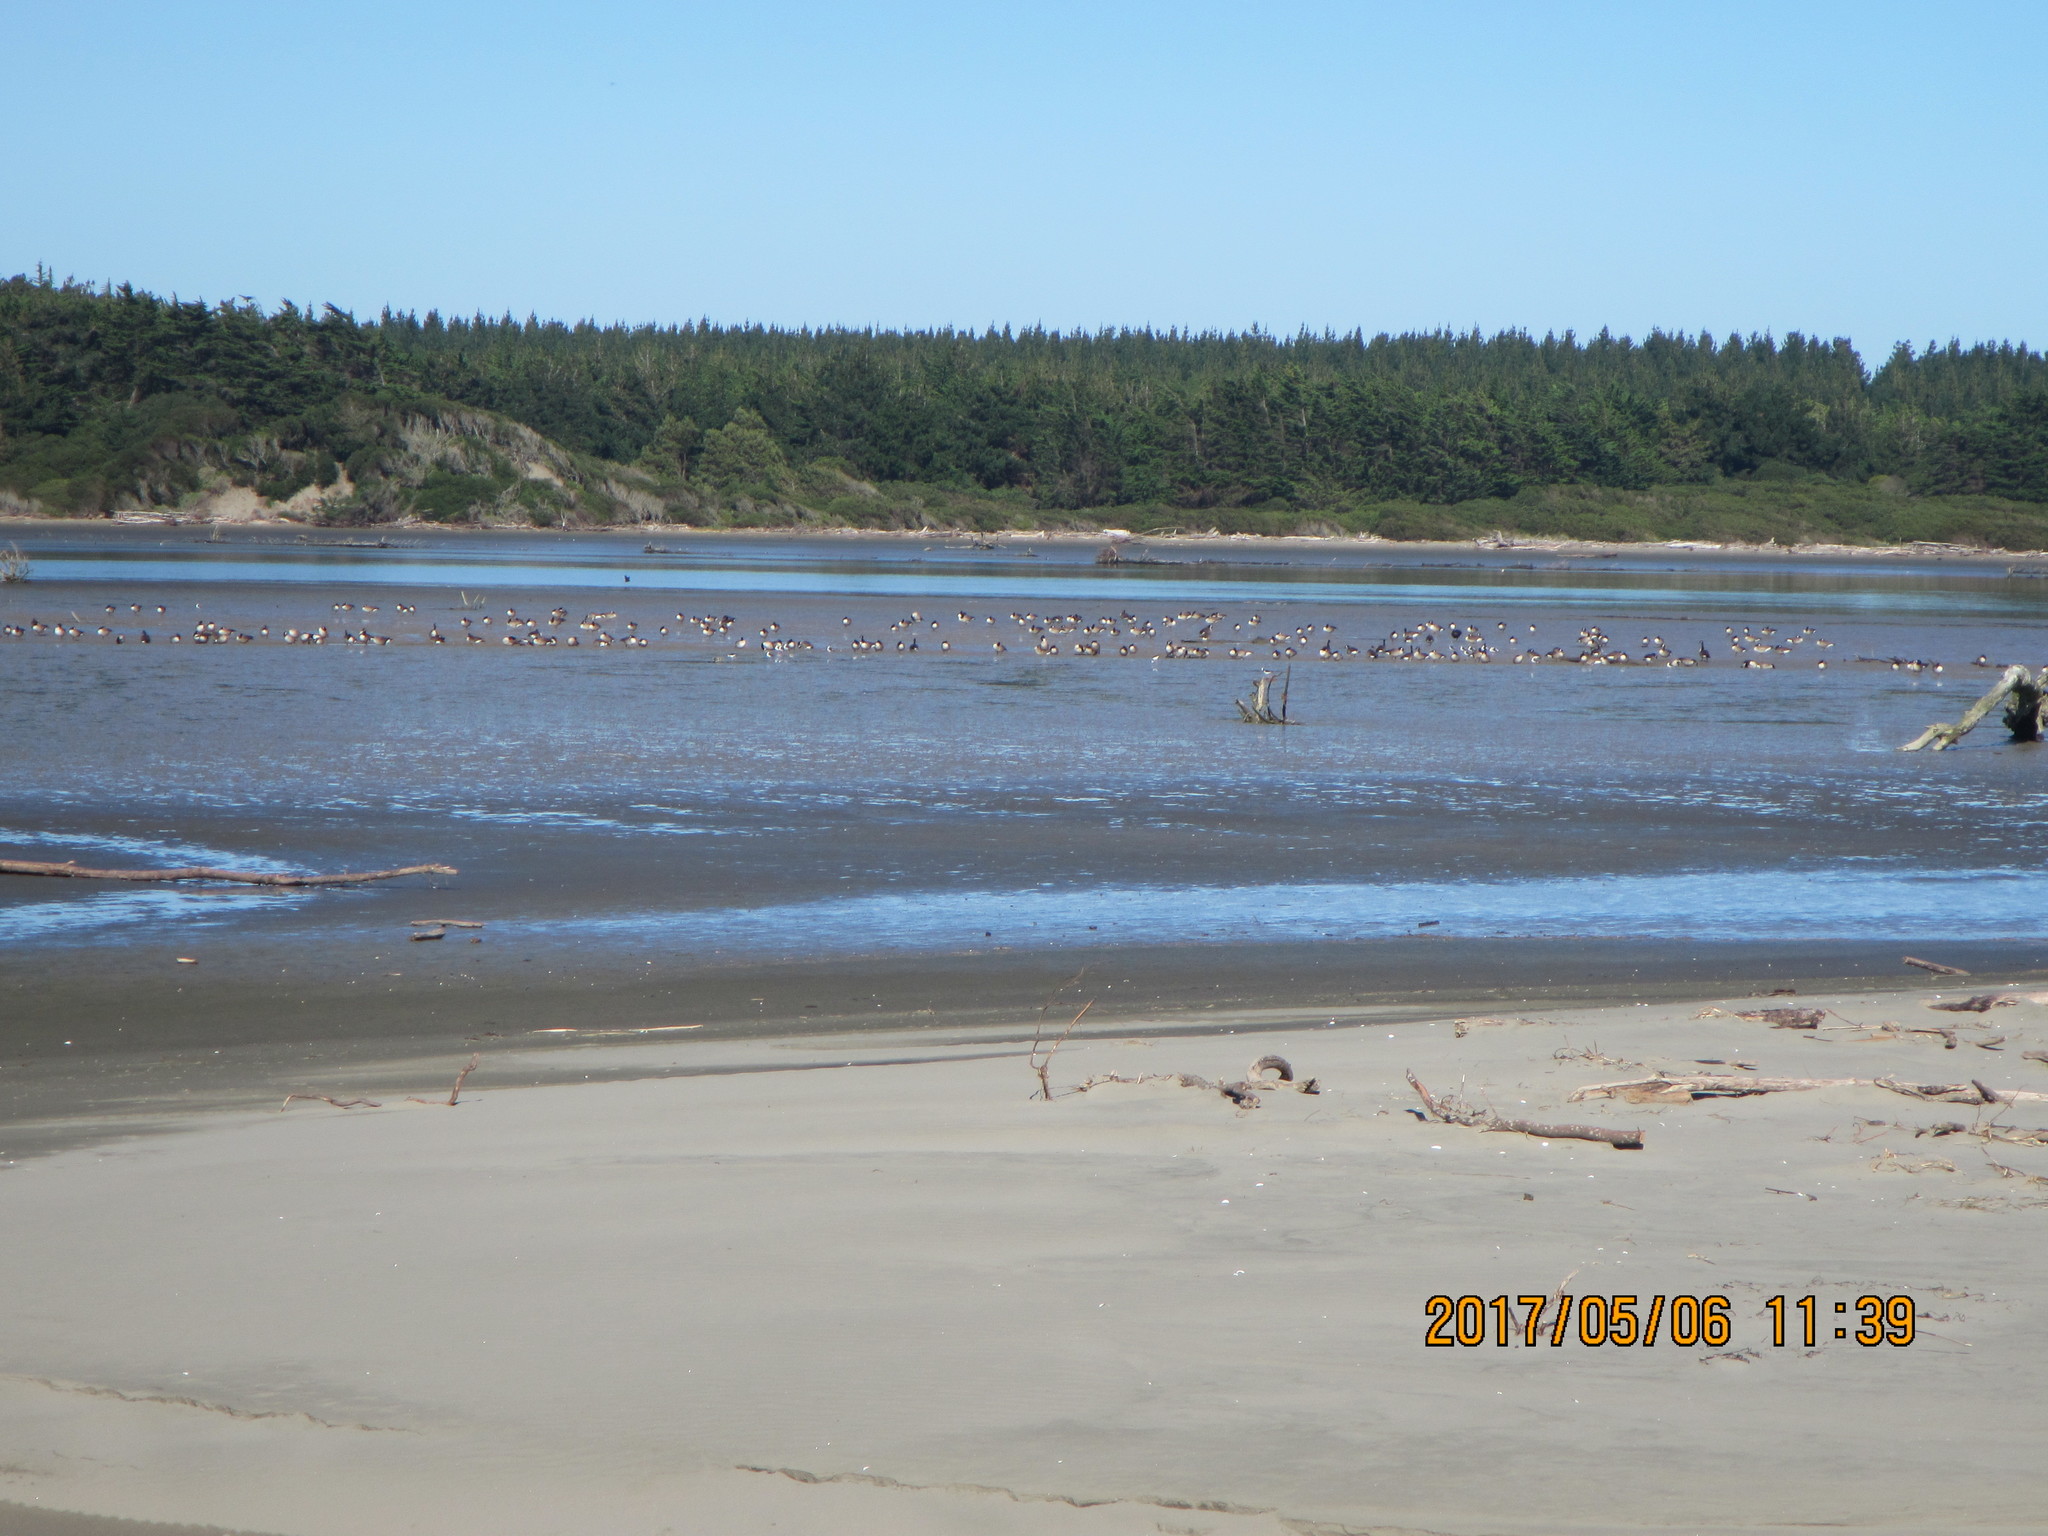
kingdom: Animalia
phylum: Chordata
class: Aves
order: Anseriformes
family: Anatidae
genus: Branta
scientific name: Branta canadensis
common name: Canada goose
